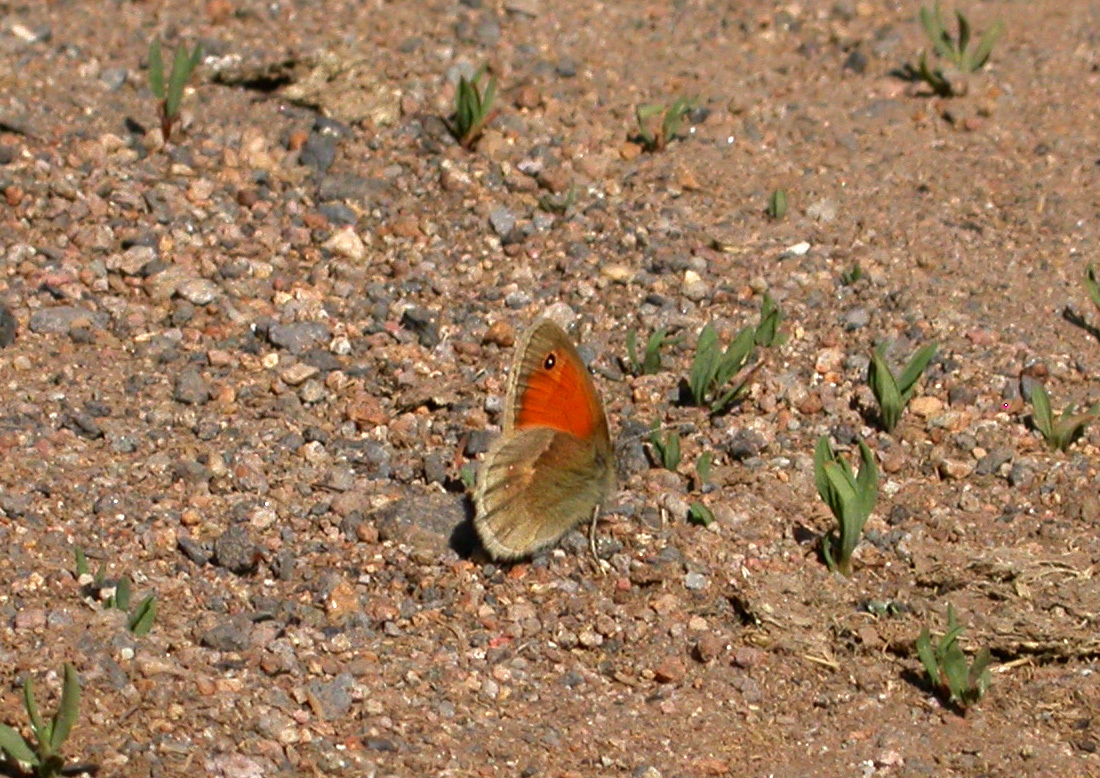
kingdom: Animalia
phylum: Arthropoda
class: Insecta
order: Lepidoptera
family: Nymphalidae
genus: Coenonympha
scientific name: Coenonympha pamphilus
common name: Small heath
